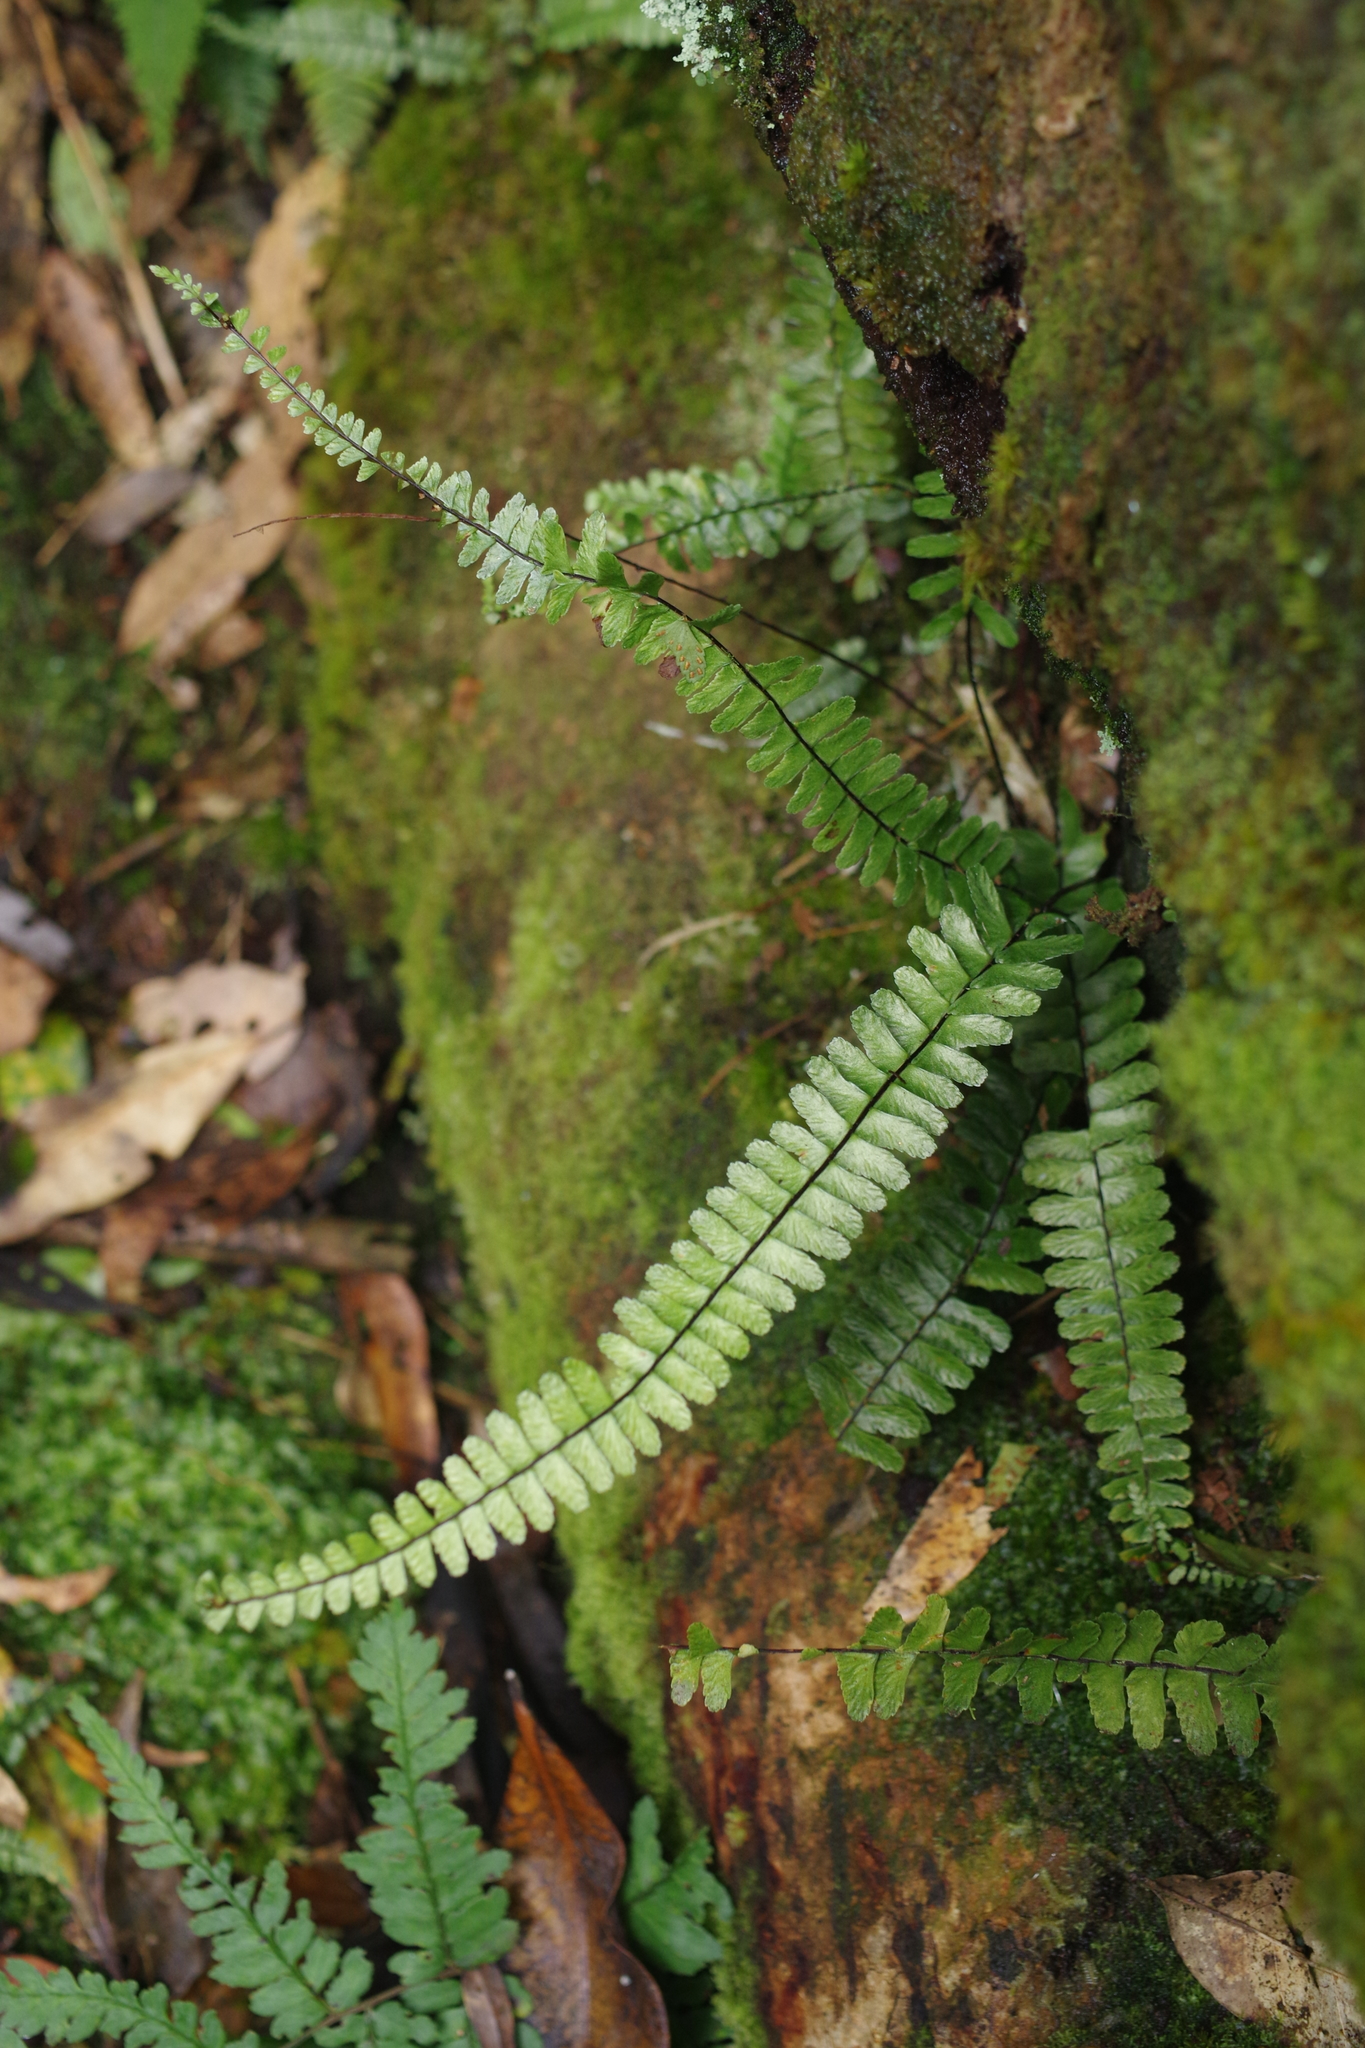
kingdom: Plantae
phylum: Tracheophyta
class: Polypodiopsida
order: Polypodiales
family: Aspleniaceae
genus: Asplenium
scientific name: Asplenium normale
